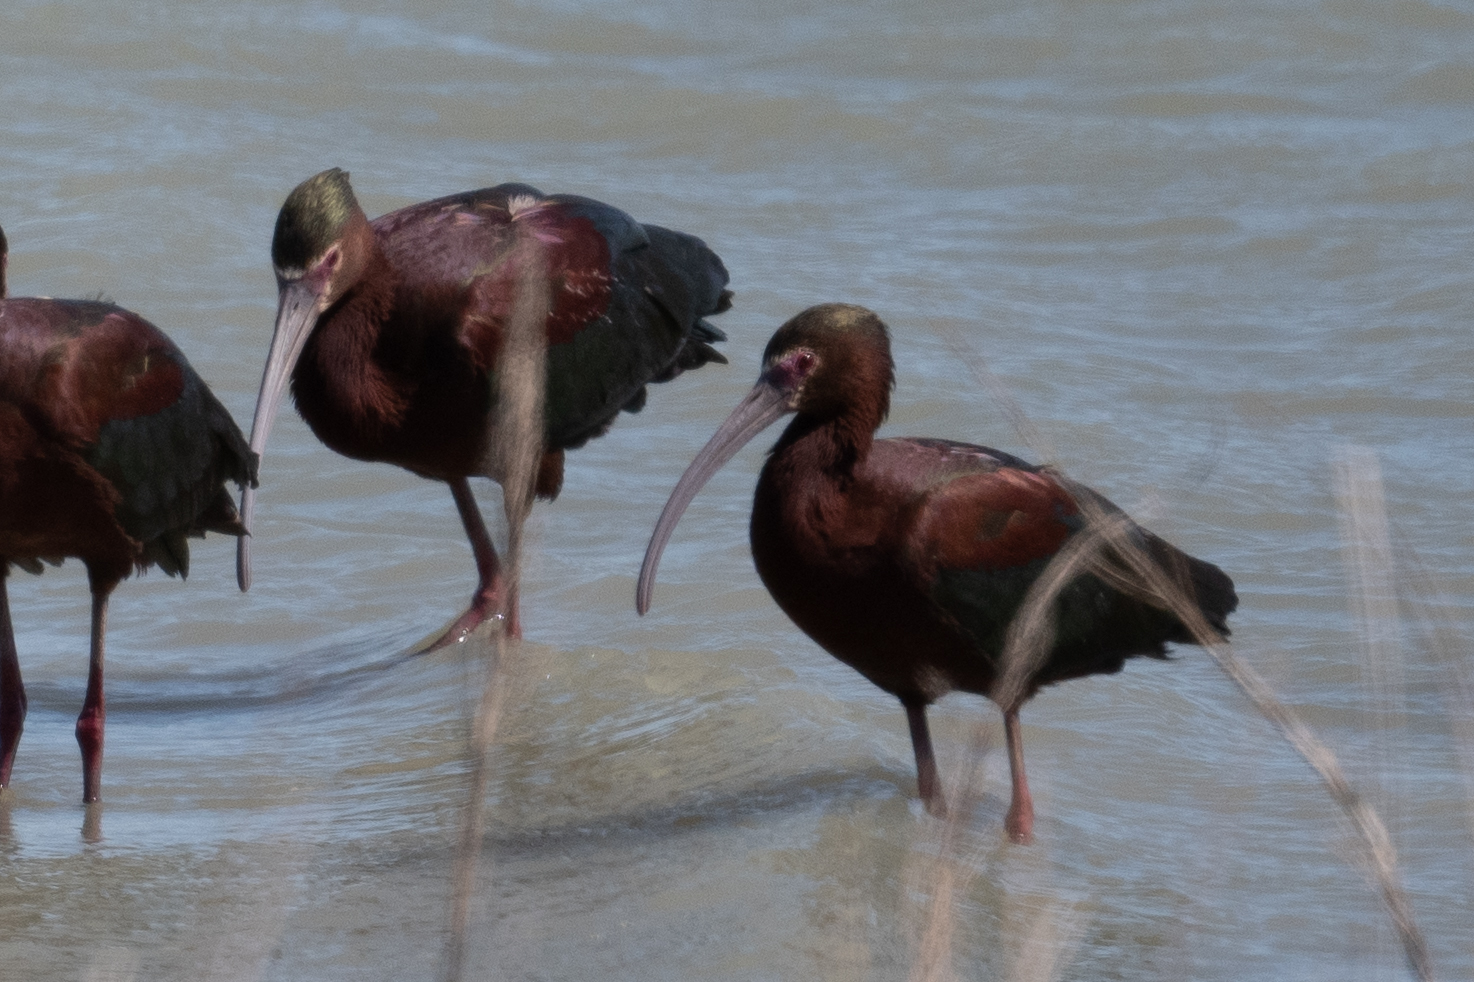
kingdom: Animalia
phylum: Chordata
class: Aves
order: Pelecaniformes
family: Threskiornithidae
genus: Plegadis
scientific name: Plegadis chihi
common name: White-faced ibis
